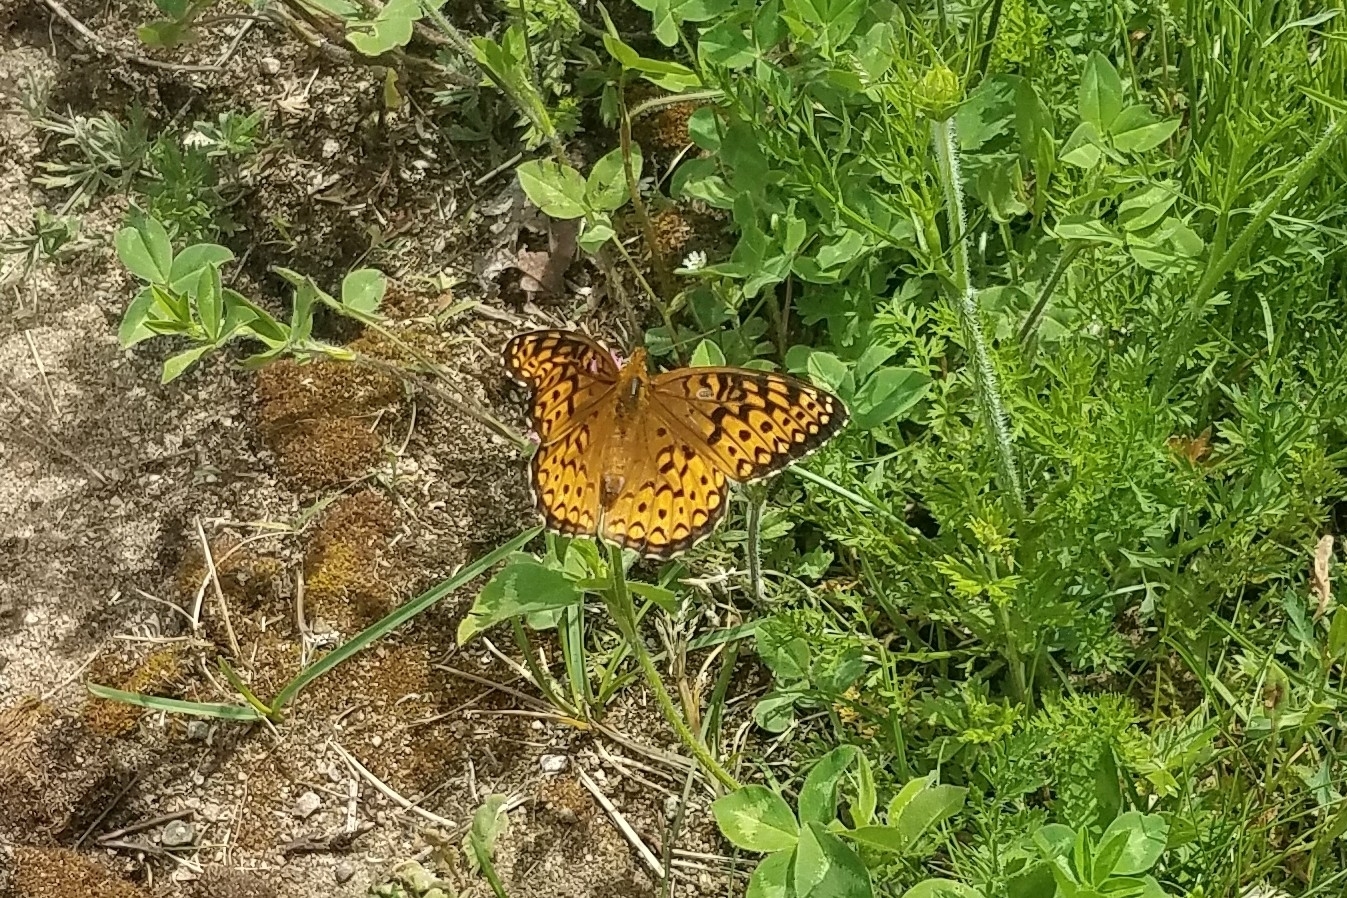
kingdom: Animalia
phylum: Arthropoda
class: Insecta
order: Lepidoptera
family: Nymphalidae
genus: Speyeria
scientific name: Speyeria atlantis
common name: Atlantis fritillary
